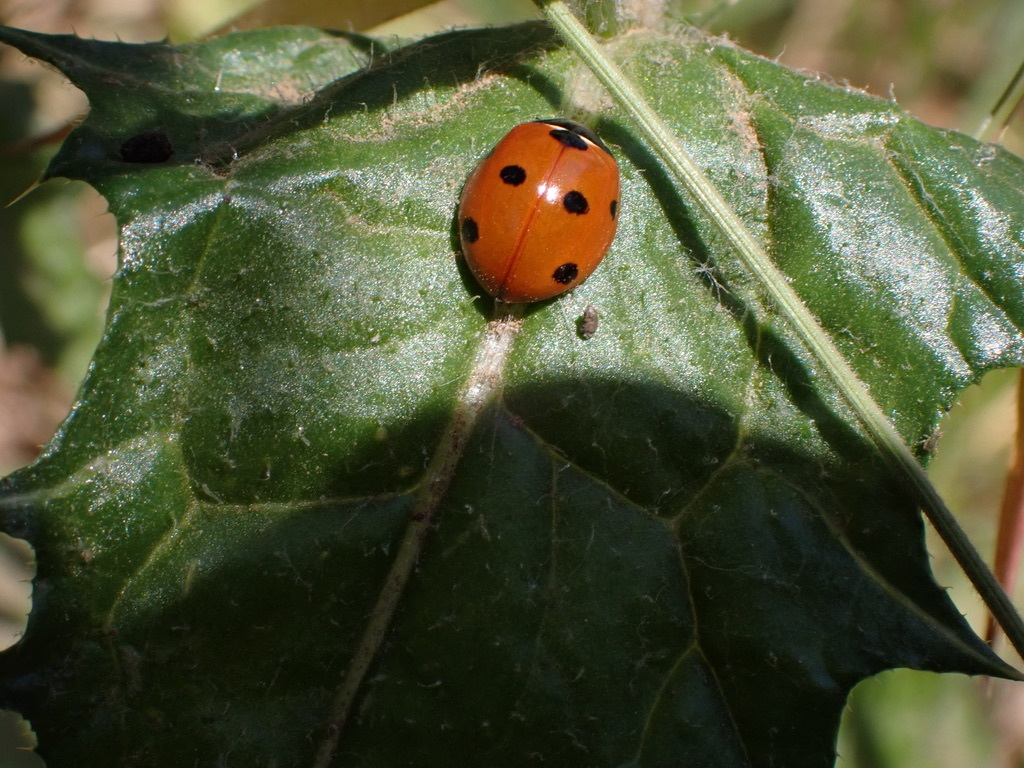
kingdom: Animalia
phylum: Arthropoda
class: Insecta
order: Coleoptera
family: Coccinellidae
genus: Coccinella
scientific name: Coccinella septempunctata
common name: Sevenspotted lady beetle
